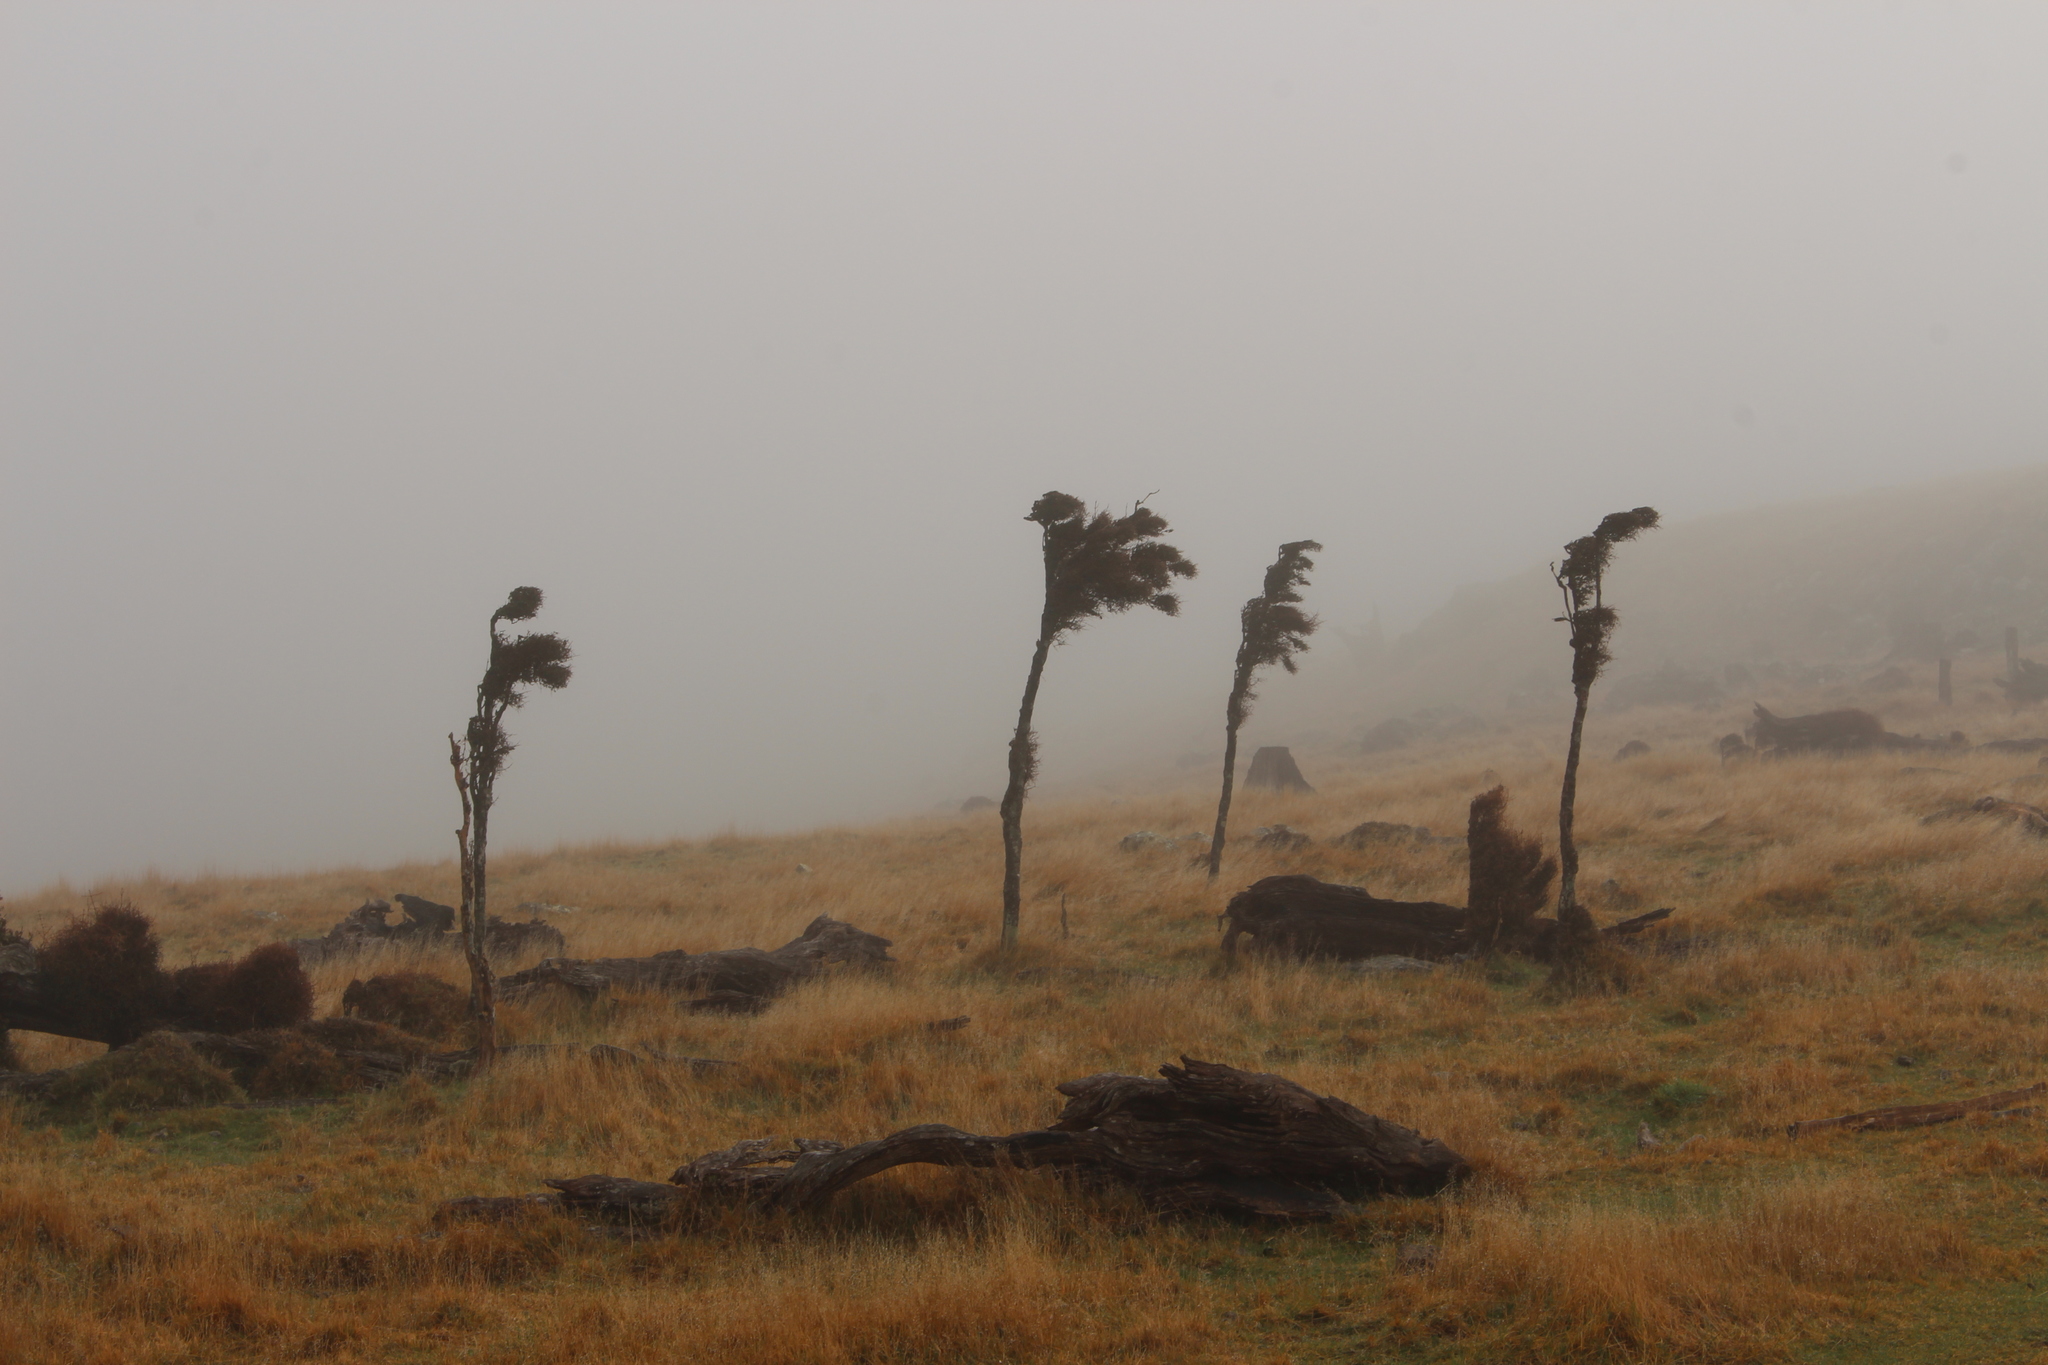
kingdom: Plantae
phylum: Tracheophyta
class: Magnoliopsida
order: Gentianales
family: Rubiaceae
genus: Coprosma
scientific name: Coprosma rubra
